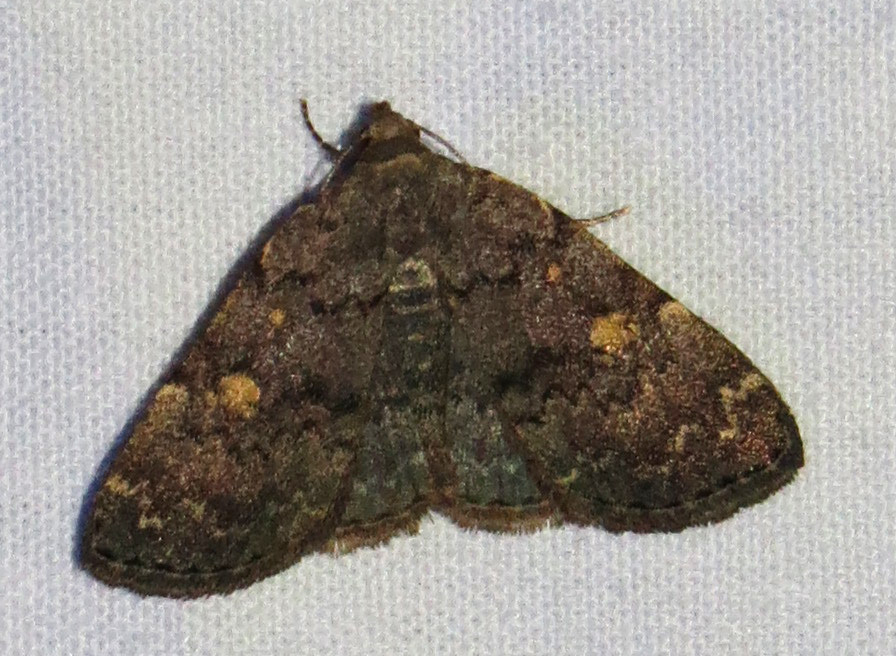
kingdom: Animalia
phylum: Arthropoda
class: Insecta
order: Lepidoptera
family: Erebidae
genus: Idia
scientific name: Idia aemula
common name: Common idia moth
